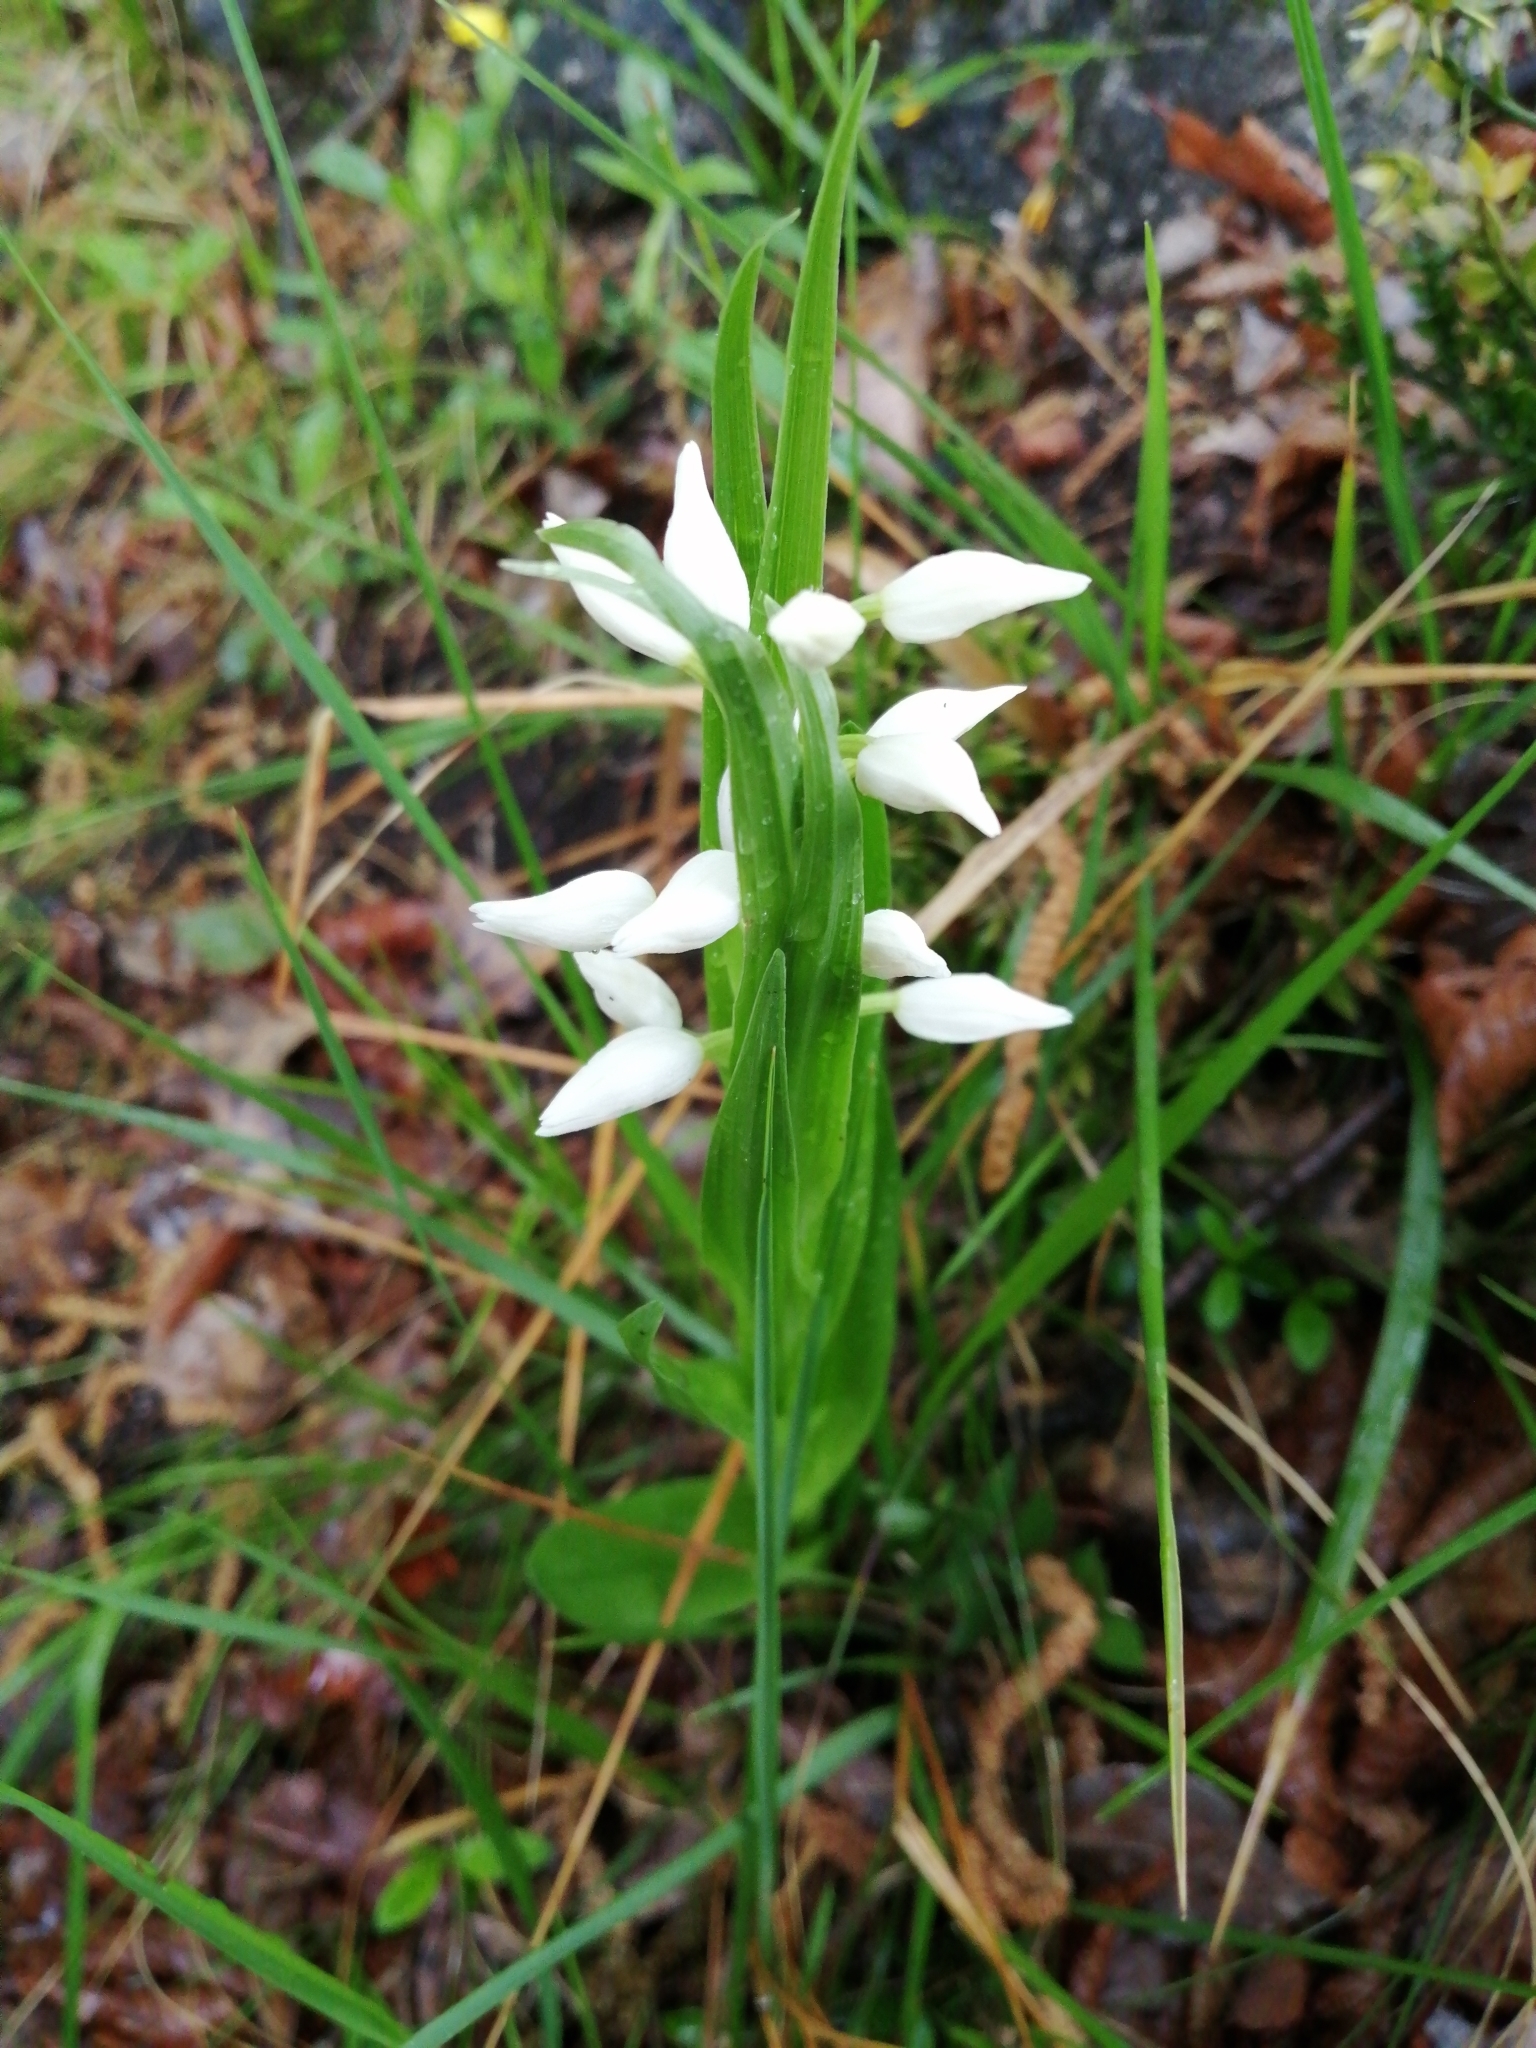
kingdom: Plantae
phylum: Tracheophyta
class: Liliopsida
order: Asparagales
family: Orchidaceae
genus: Cephalanthera
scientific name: Cephalanthera longifolia
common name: Narrow-leaved helleborine
